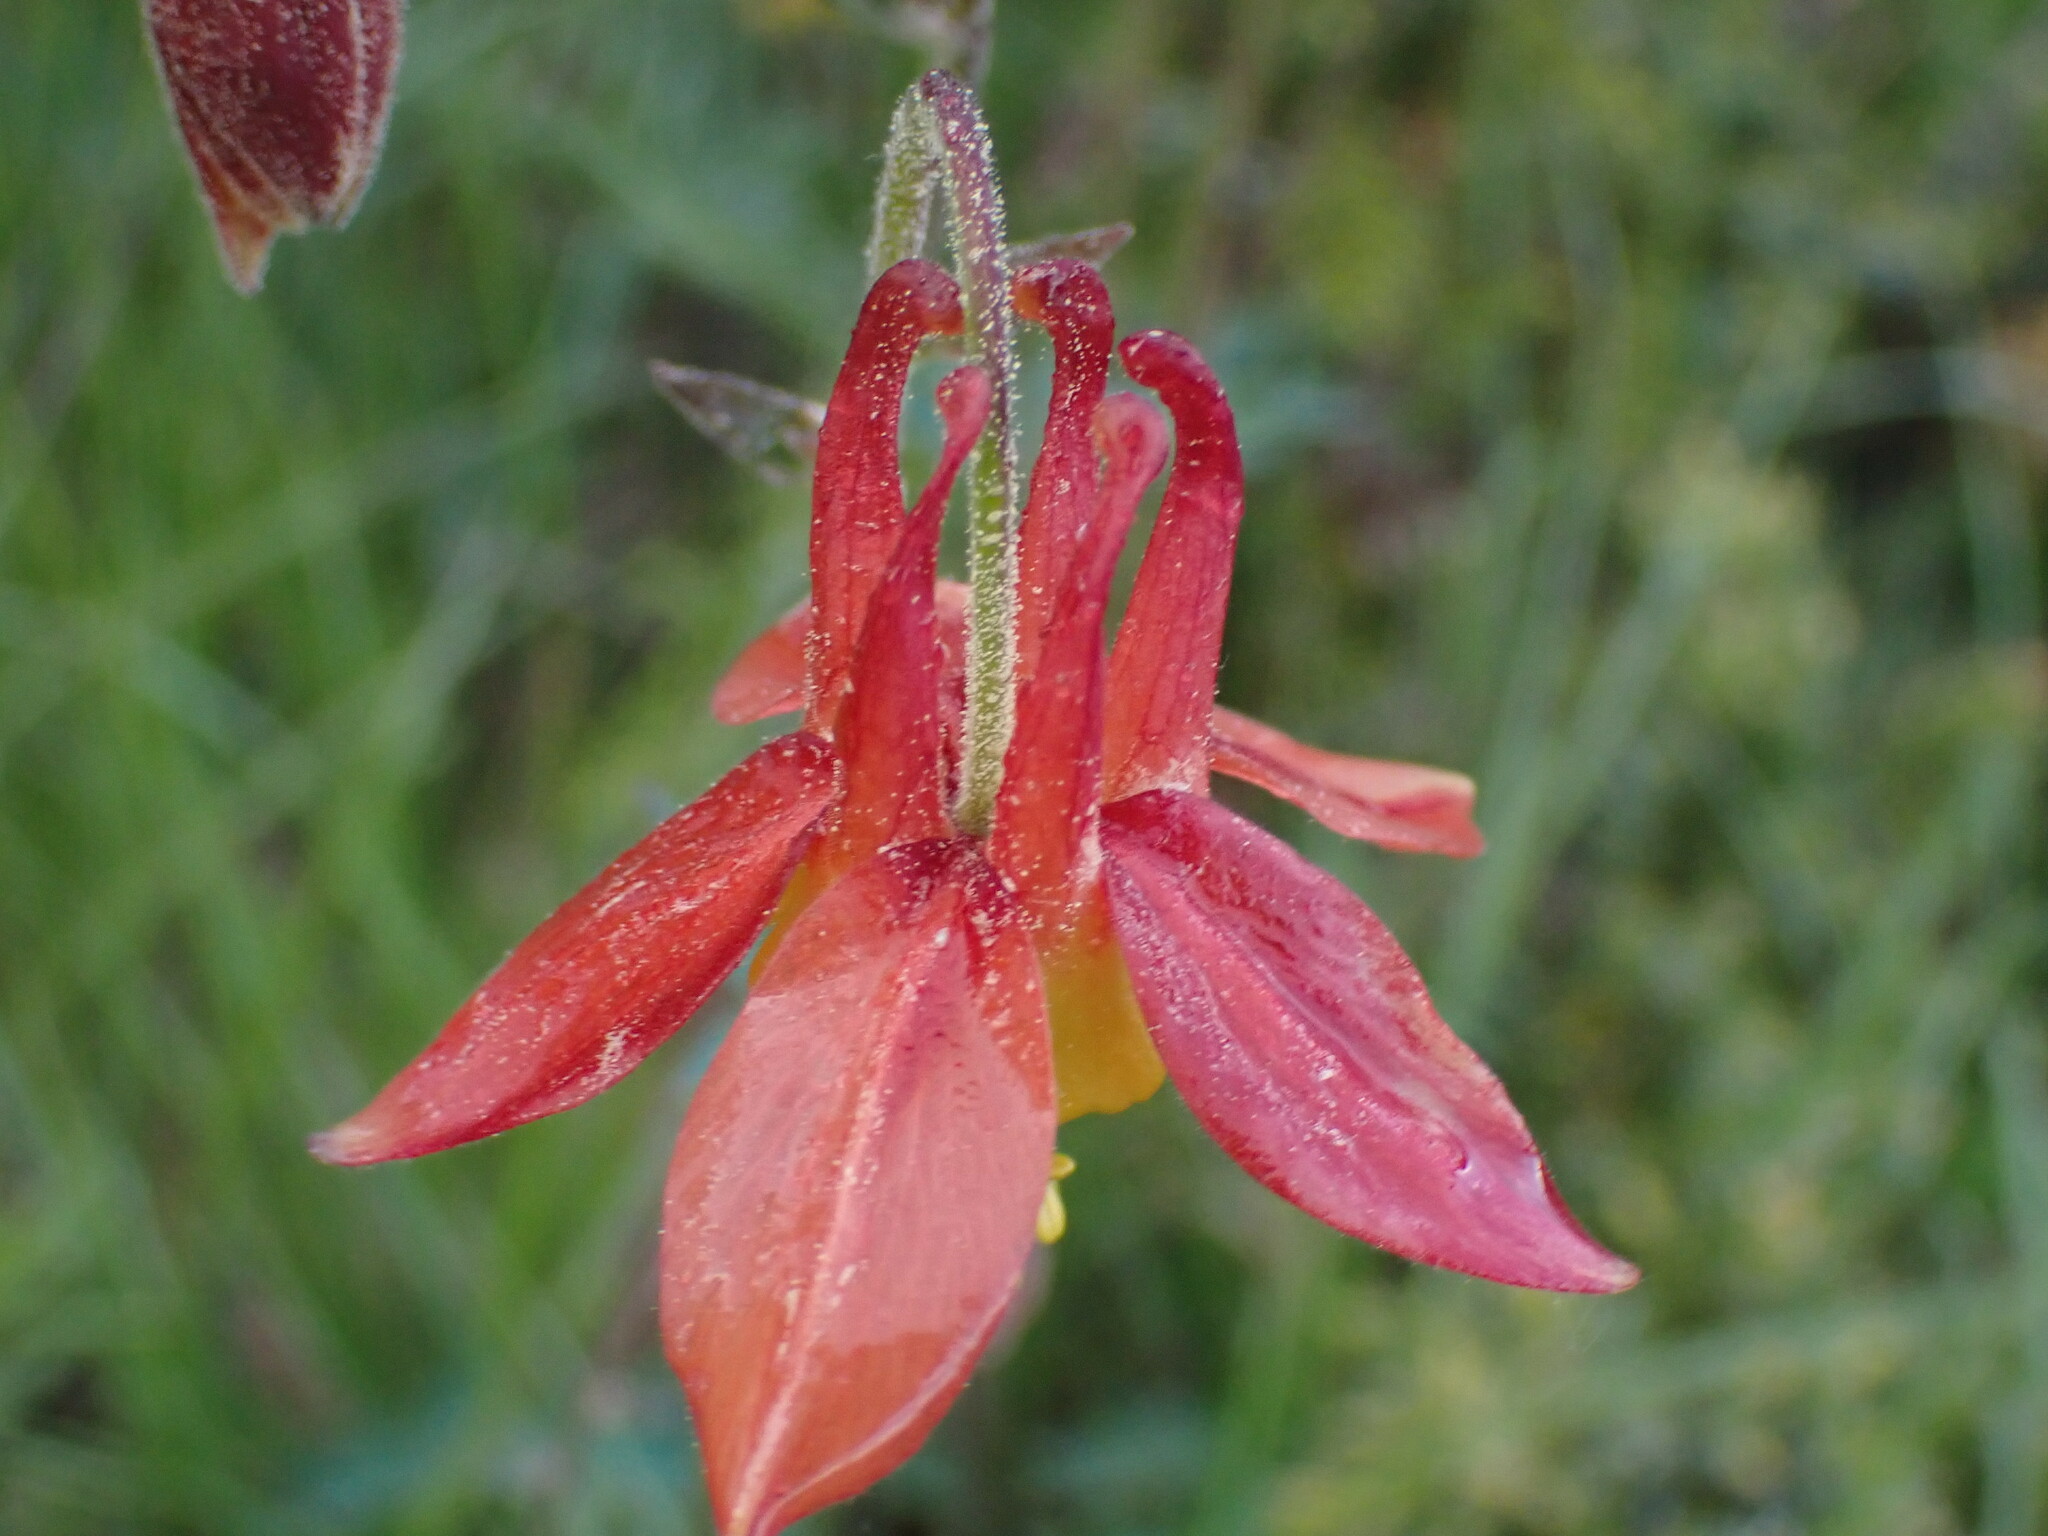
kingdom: Plantae
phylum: Tracheophyta
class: Magnoliopsida
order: Ranunculales
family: Ranunculaceae
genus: Aquilegia
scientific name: Aquilegia formosa
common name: Sitka columbine
